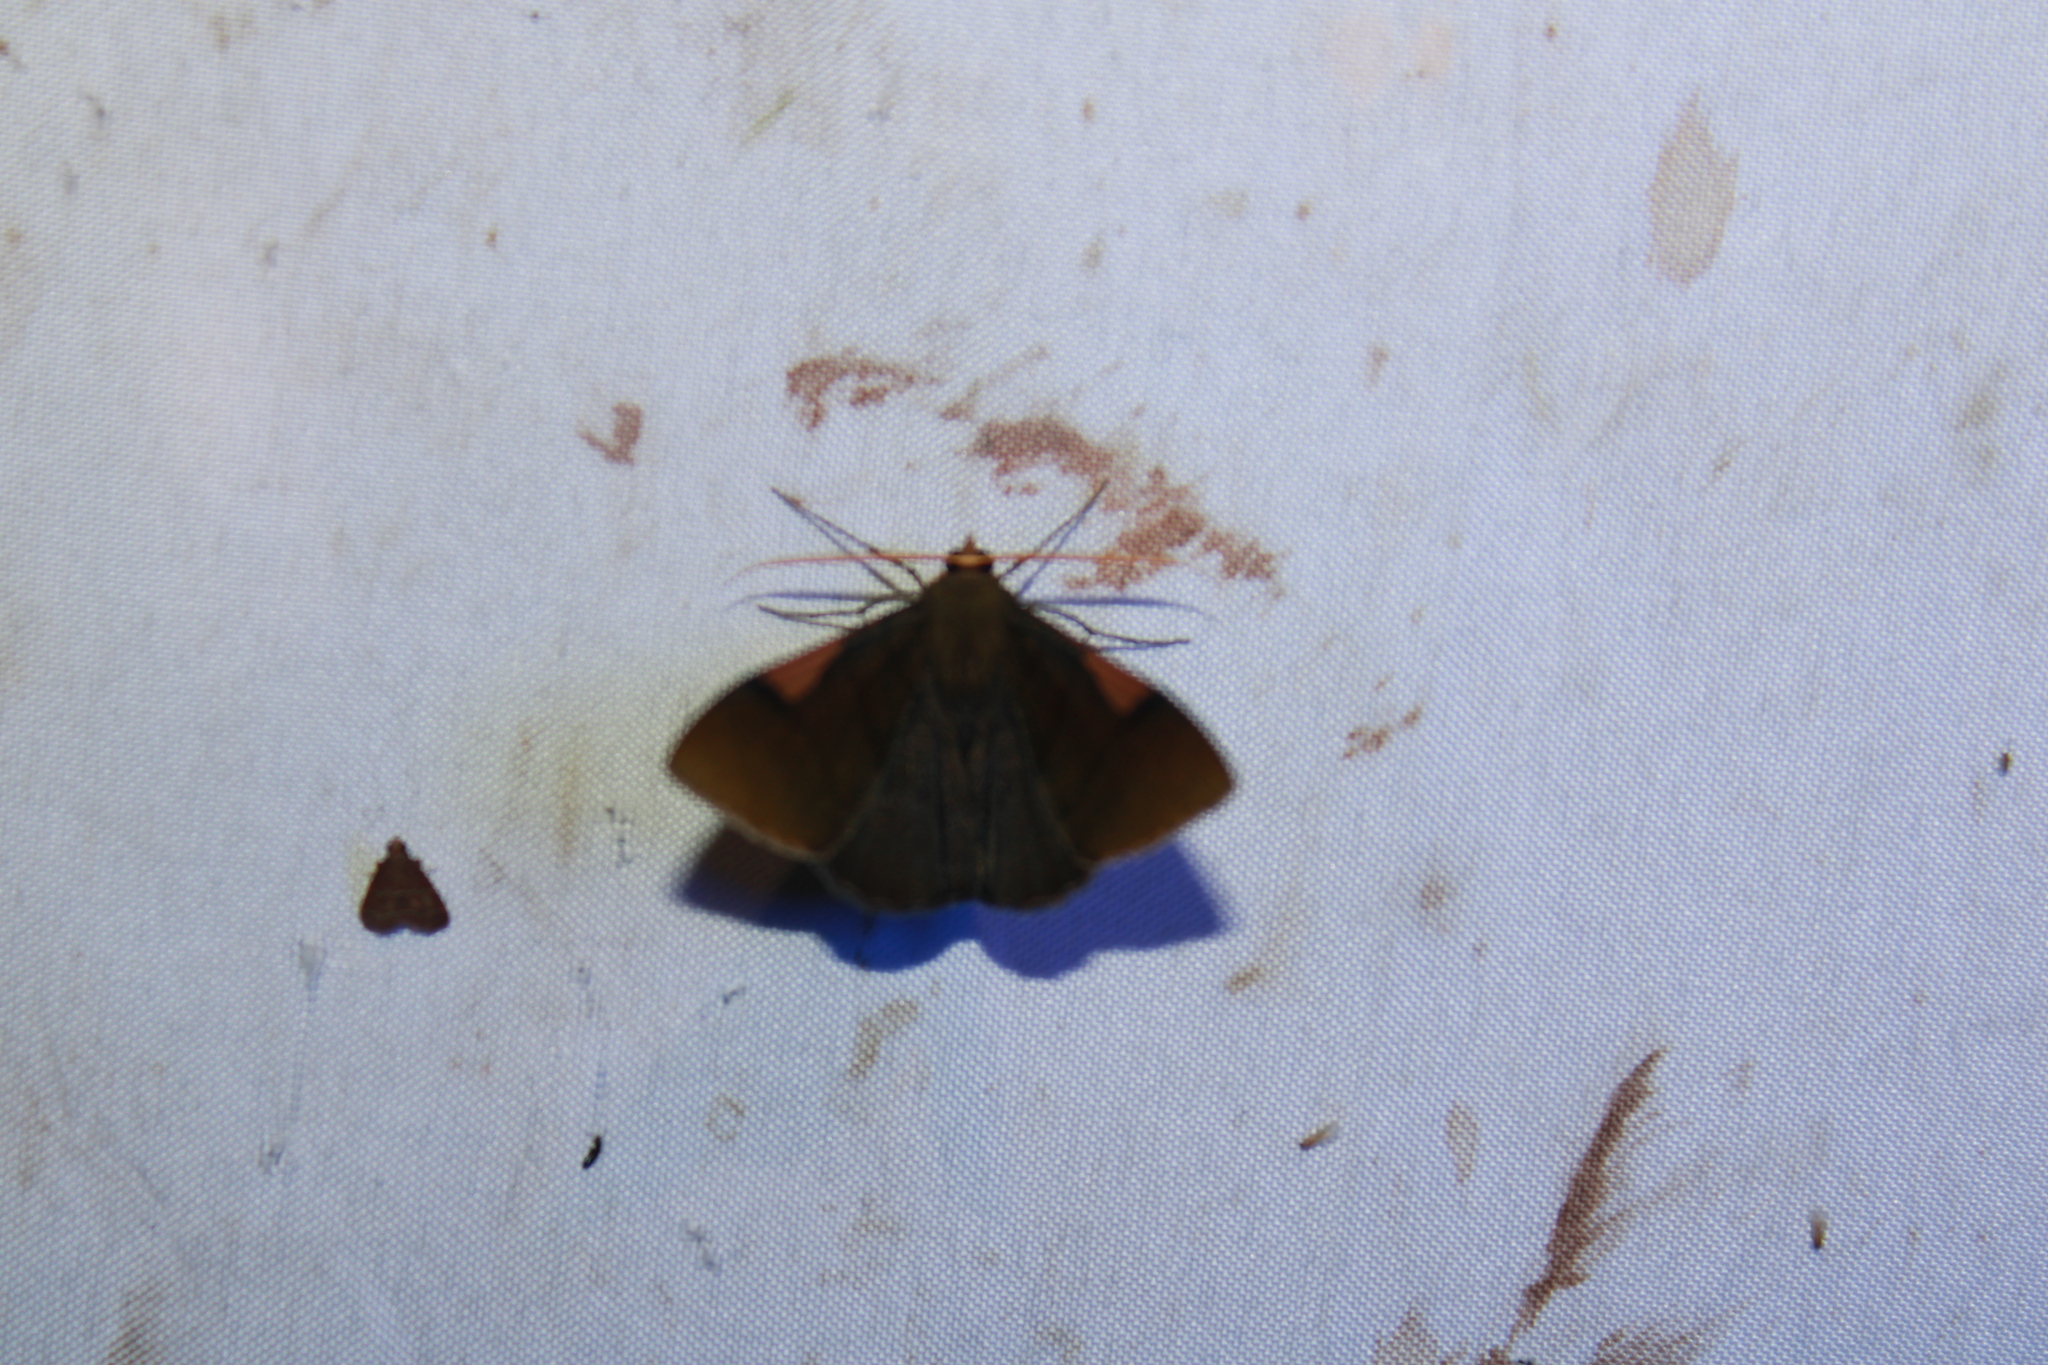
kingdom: Animalia
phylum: Arthropoda
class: Insecta
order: Lepidoptera
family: Geometridae
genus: Sphacelodes
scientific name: Sphacelodes vulneraria
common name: Looper moth
